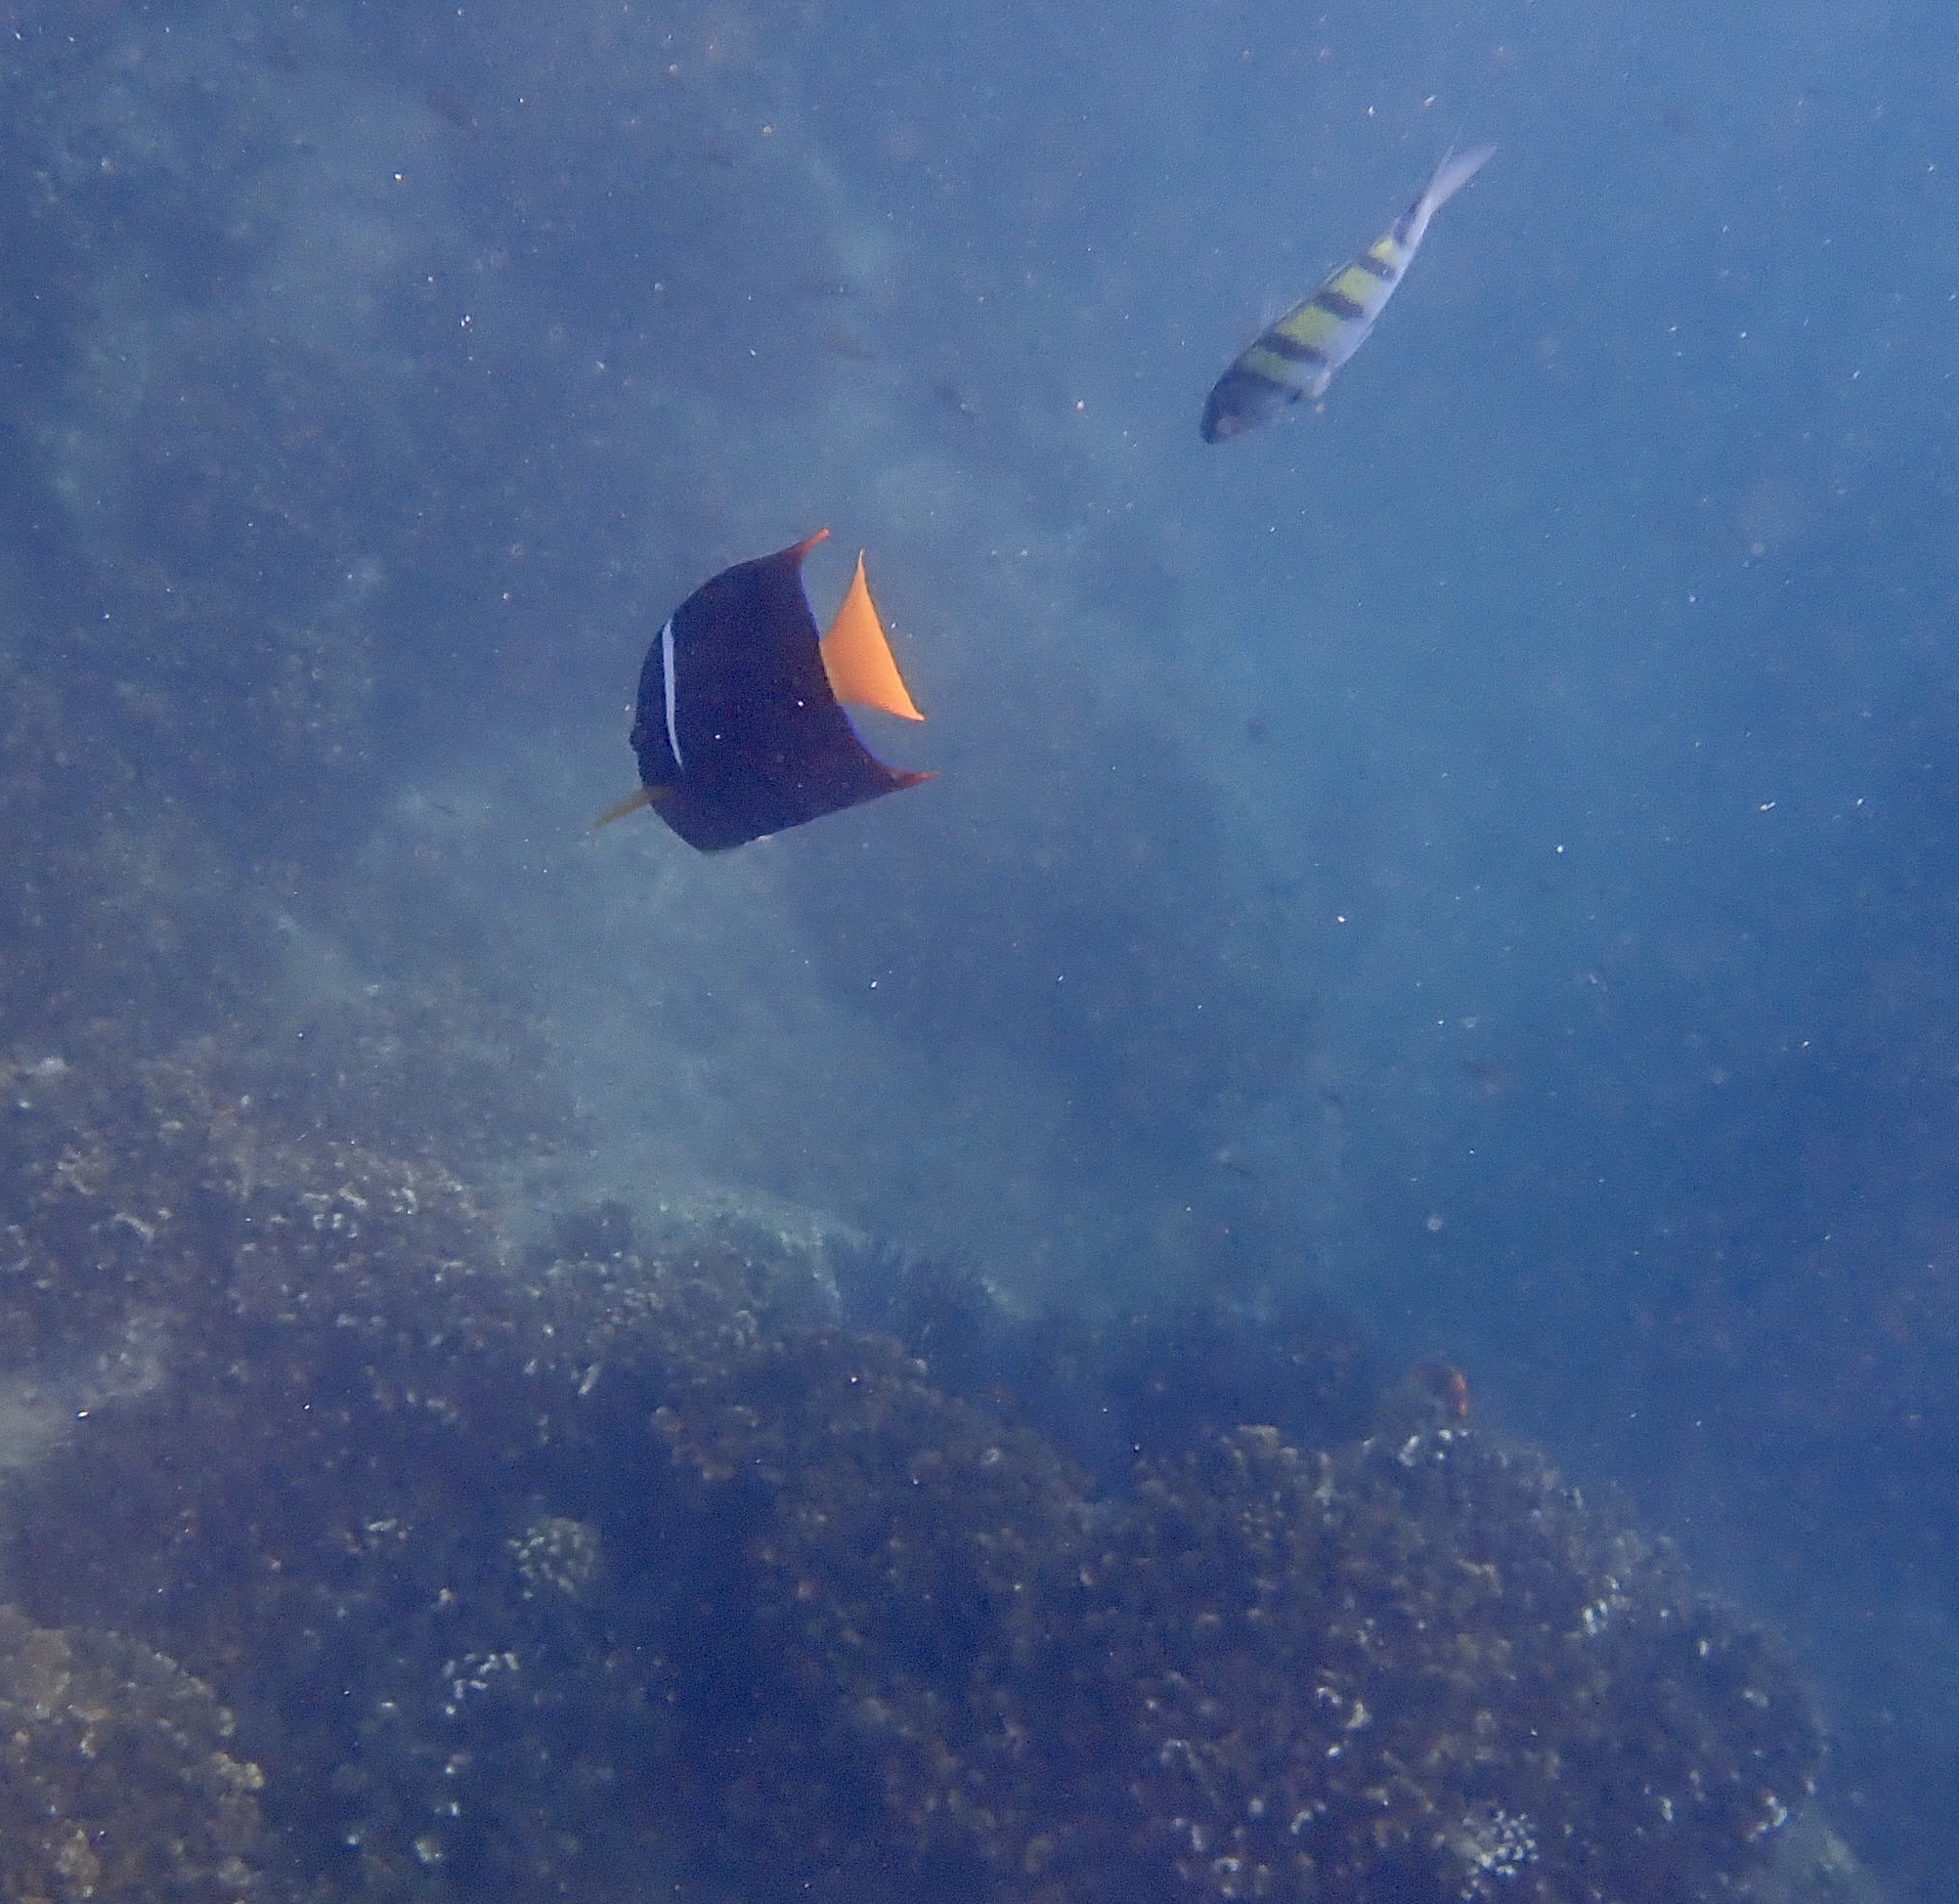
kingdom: Animalia
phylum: Chordata
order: Perciformes
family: Pomacanthidae
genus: Holacanthus
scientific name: Holacanthus passer
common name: King angelfish
